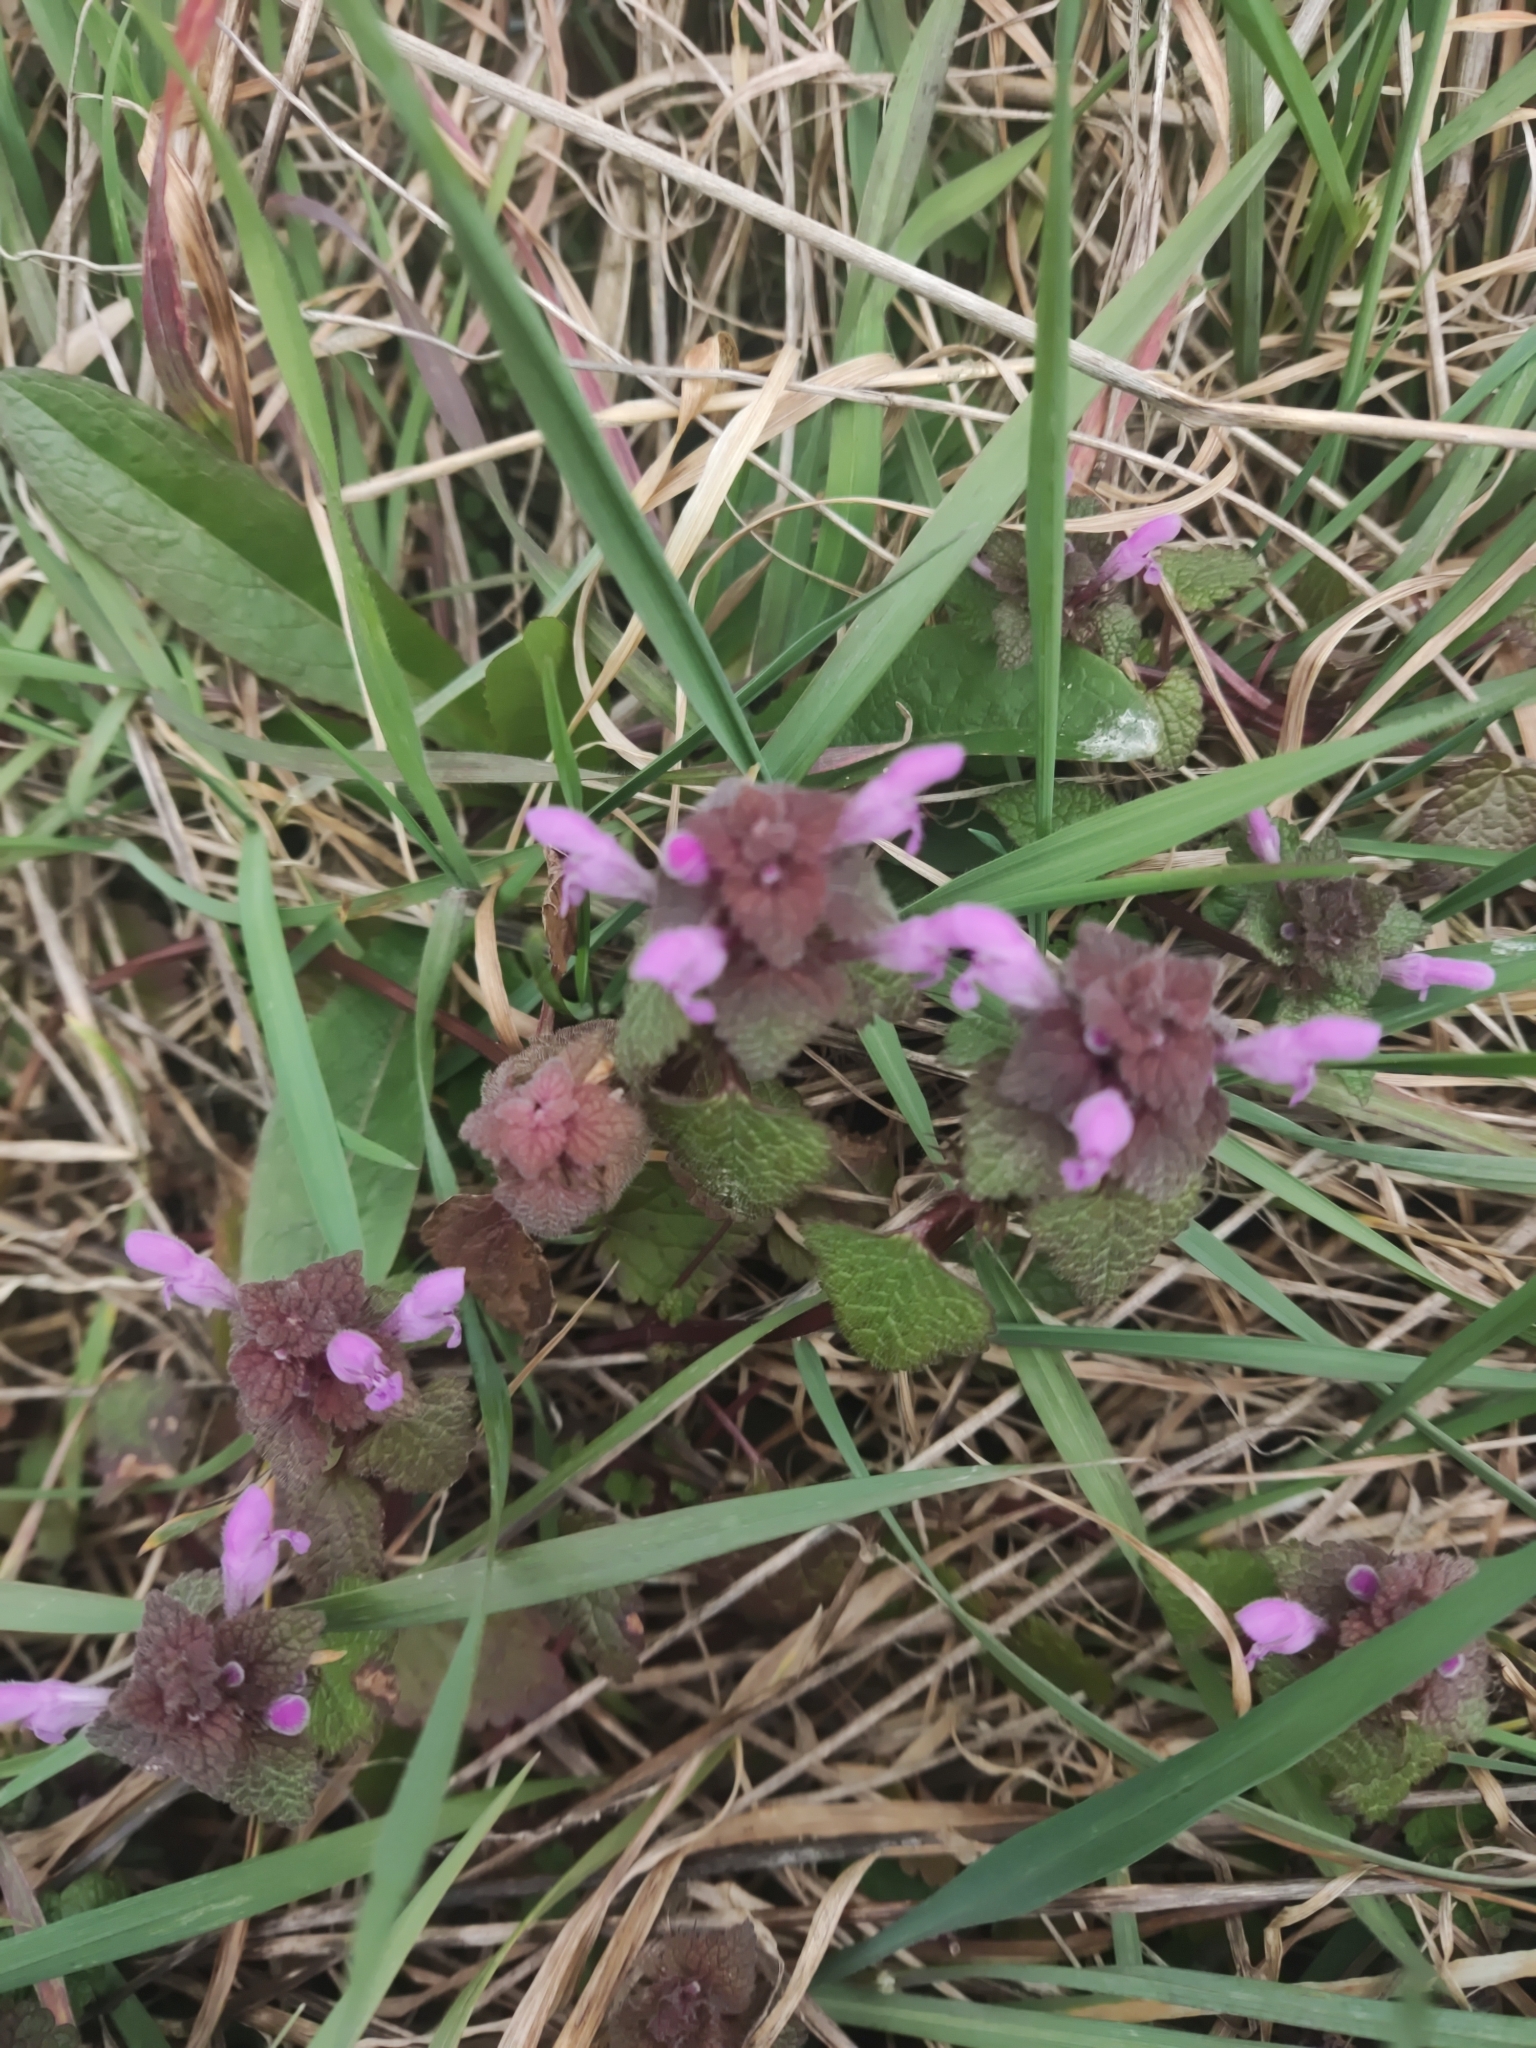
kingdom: Plantae
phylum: Tracheophyta
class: Magnoliopsida
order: Lamiales
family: Lamiaceae
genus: Lamium
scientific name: Lamium purpureum
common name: Red dead-nettle
